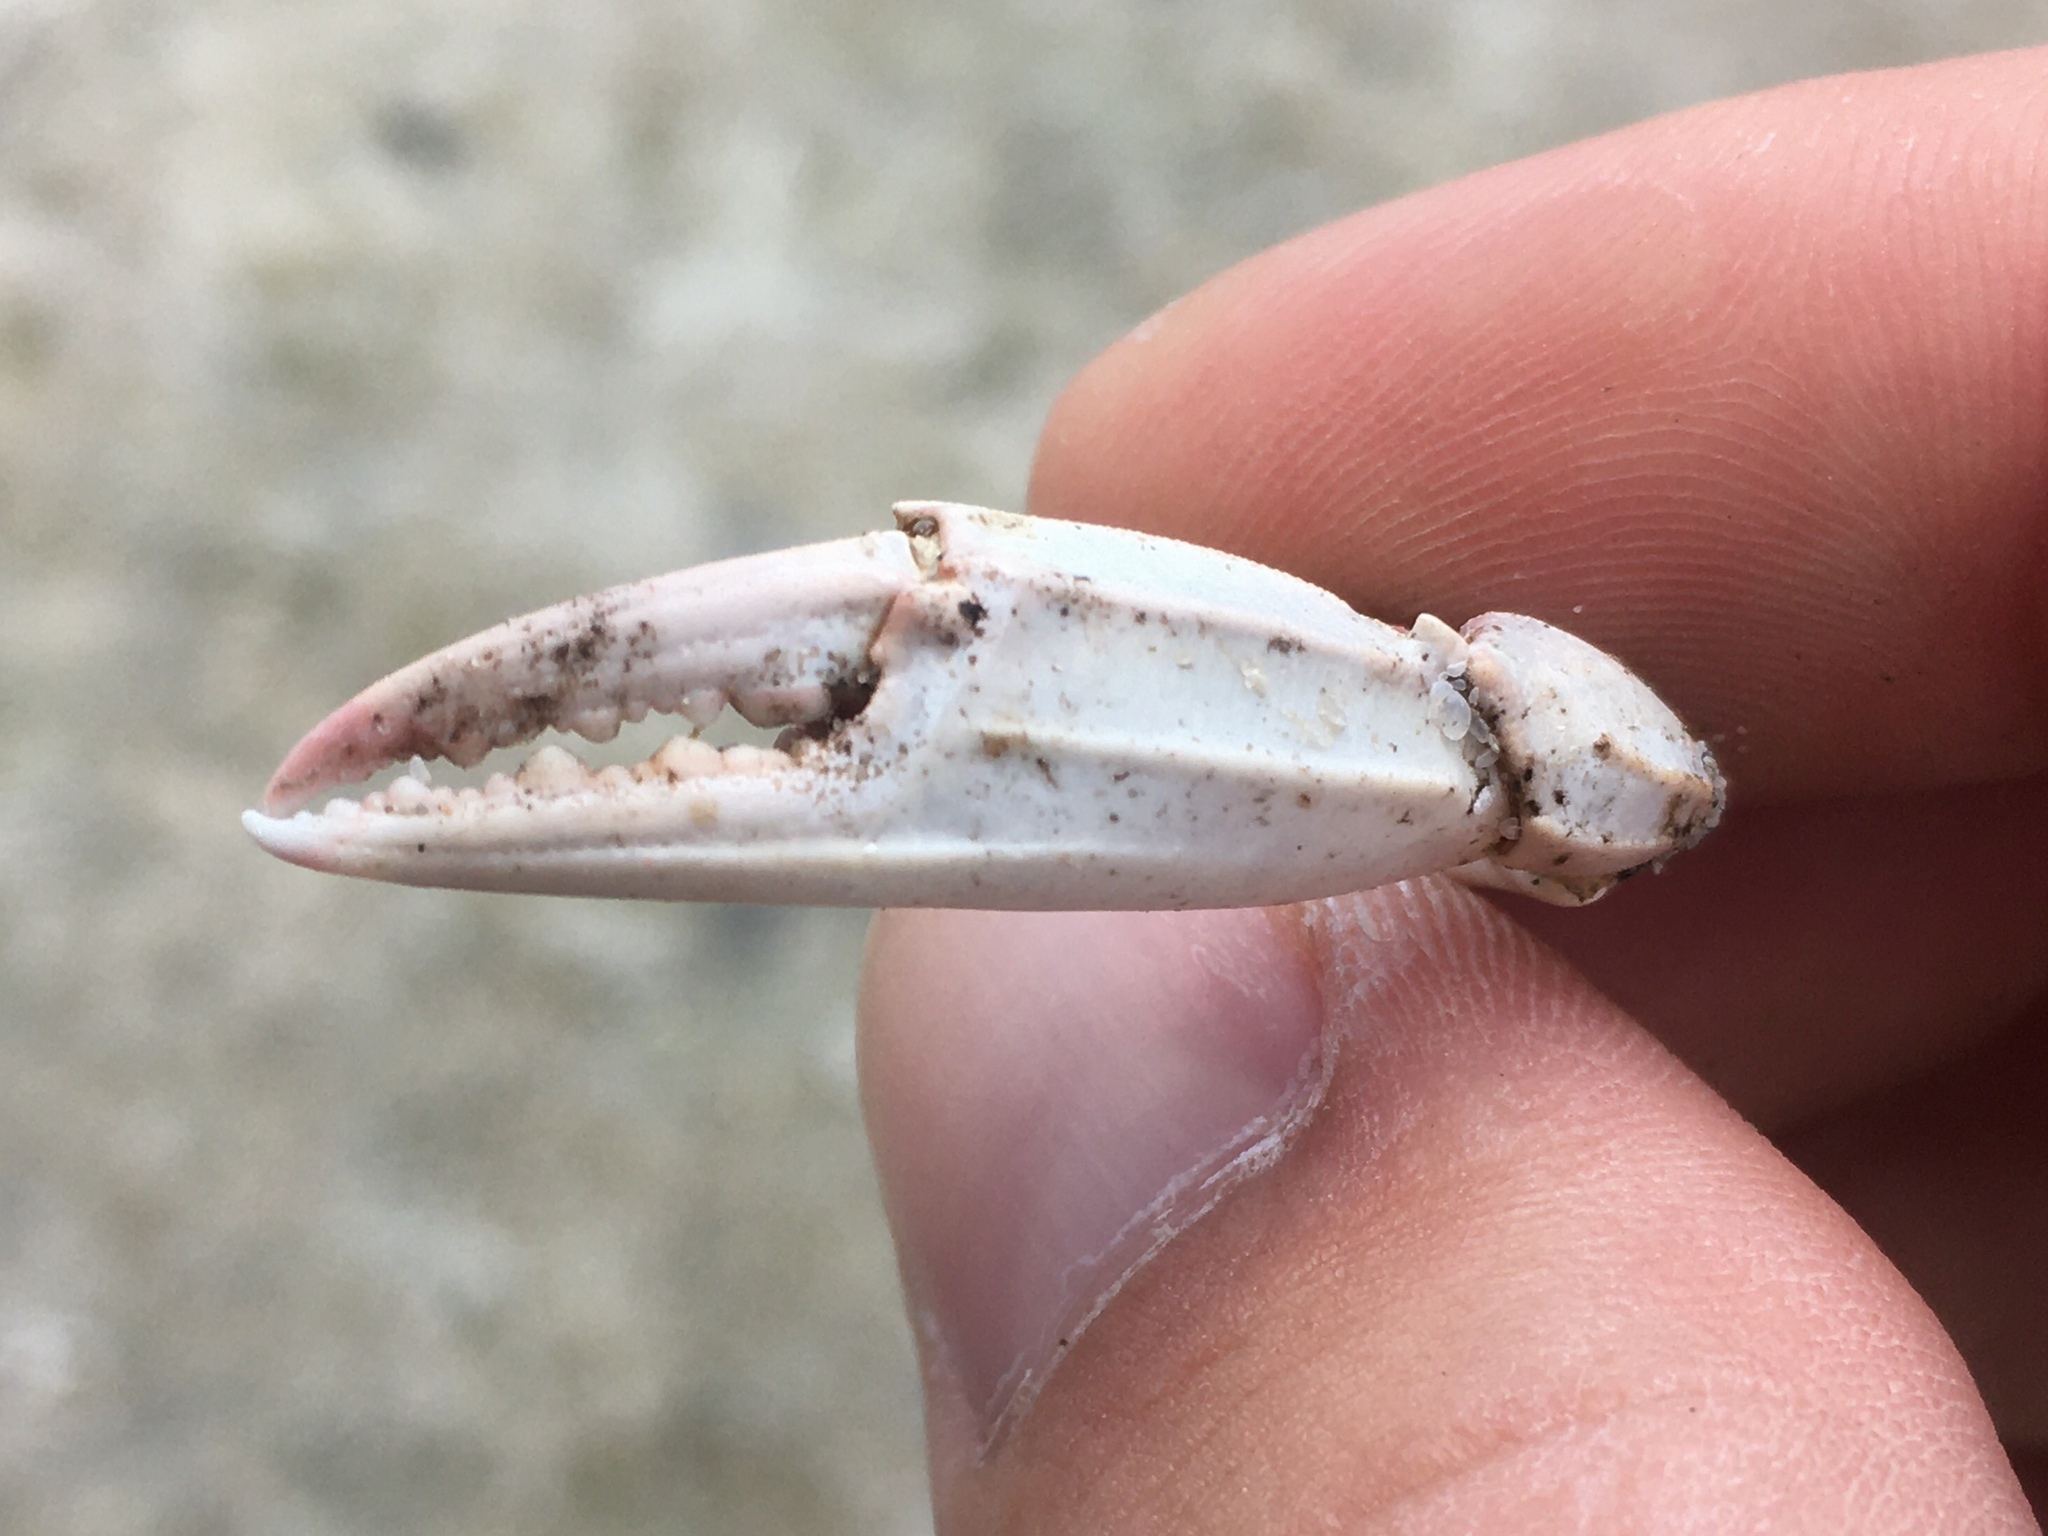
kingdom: Animalia
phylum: Arthropoda
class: Malacostraca
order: Decapoda
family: Portunidae
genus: Callinectes
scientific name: Callinectes sapidus
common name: Blue crab
